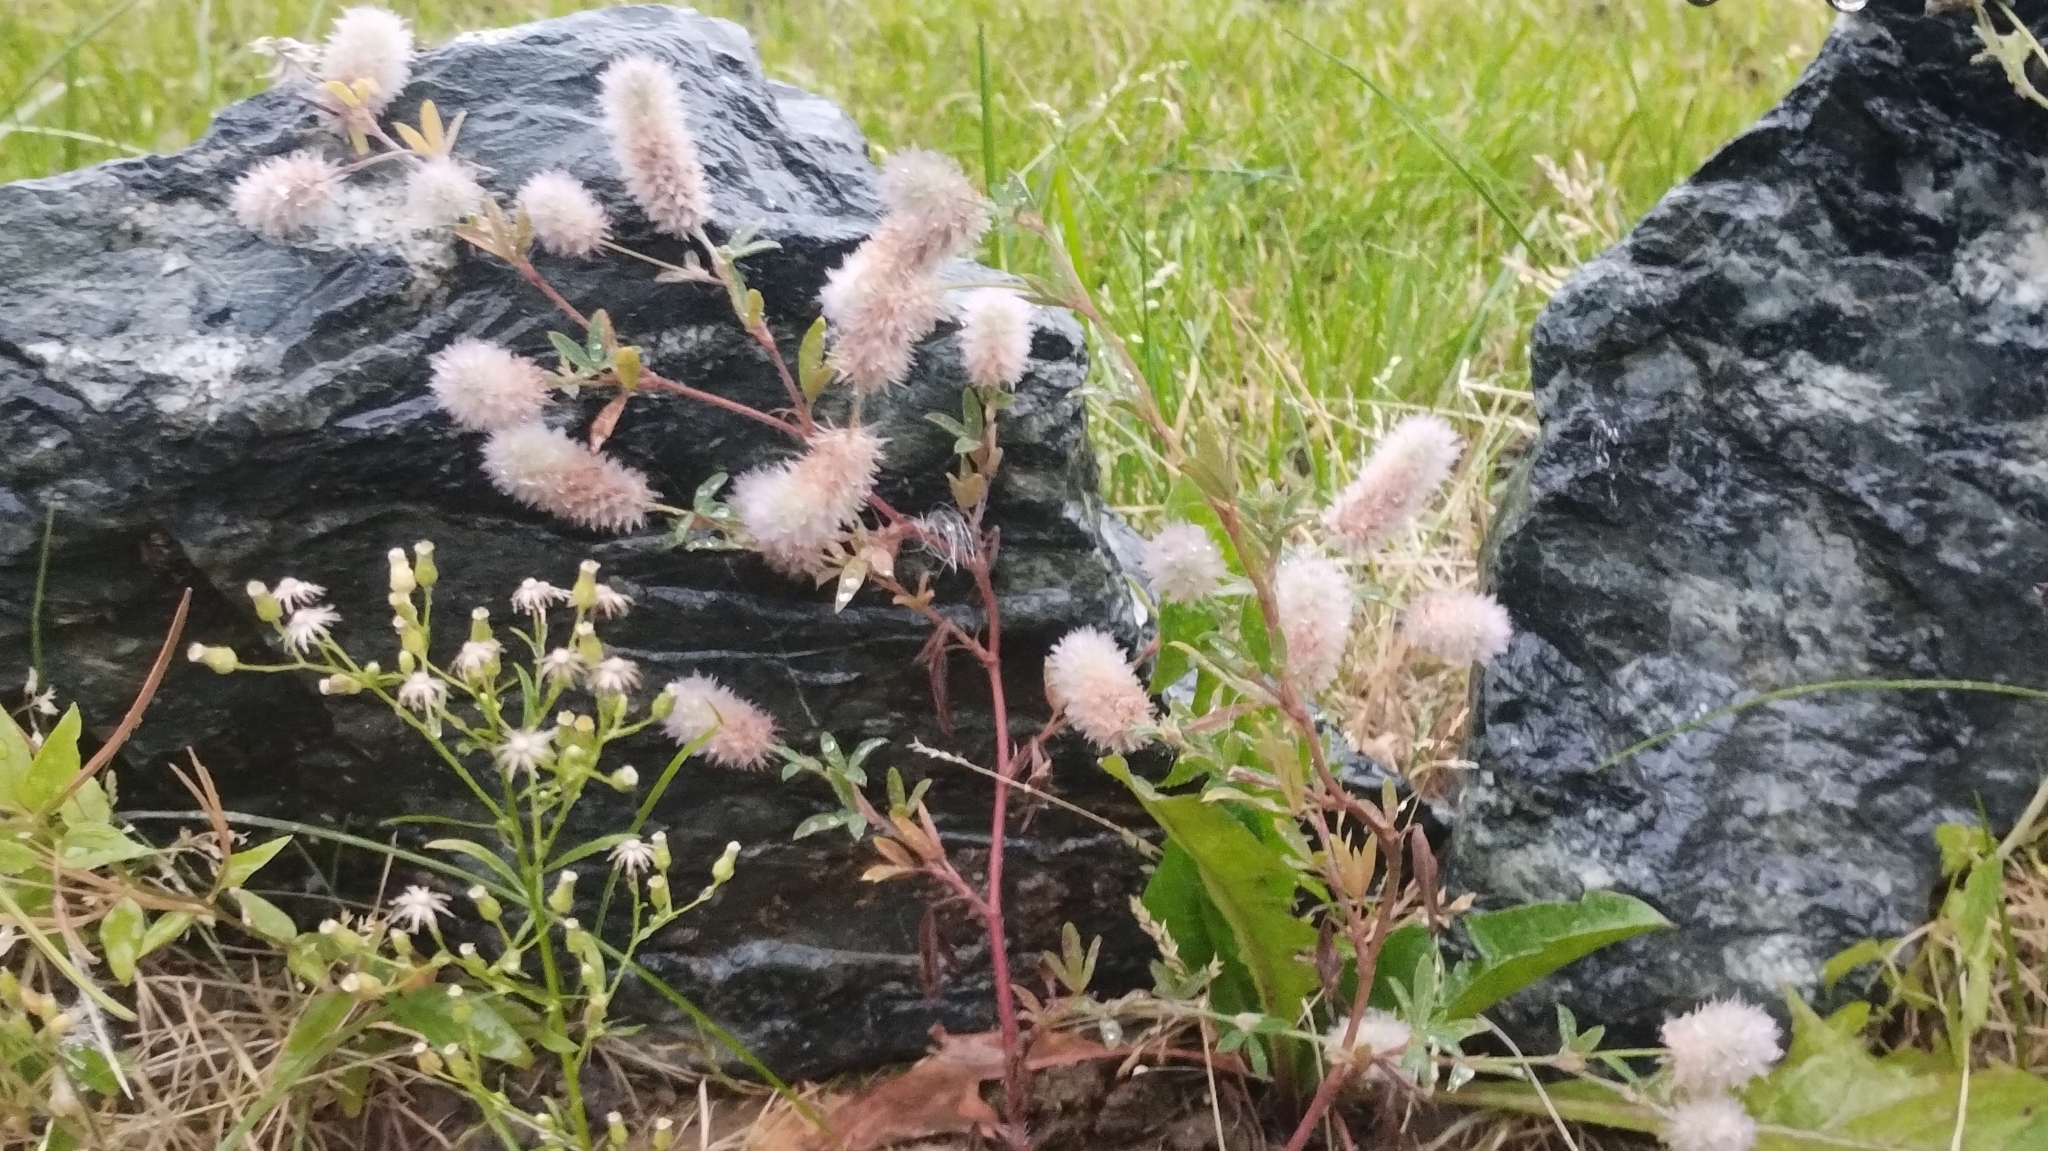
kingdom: Plantae
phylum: Tracheophyta
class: Magnoliopsida
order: Fabales
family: Fabaceae
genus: Trifolium
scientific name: Trifolium arvense
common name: Hare's-foot clover
